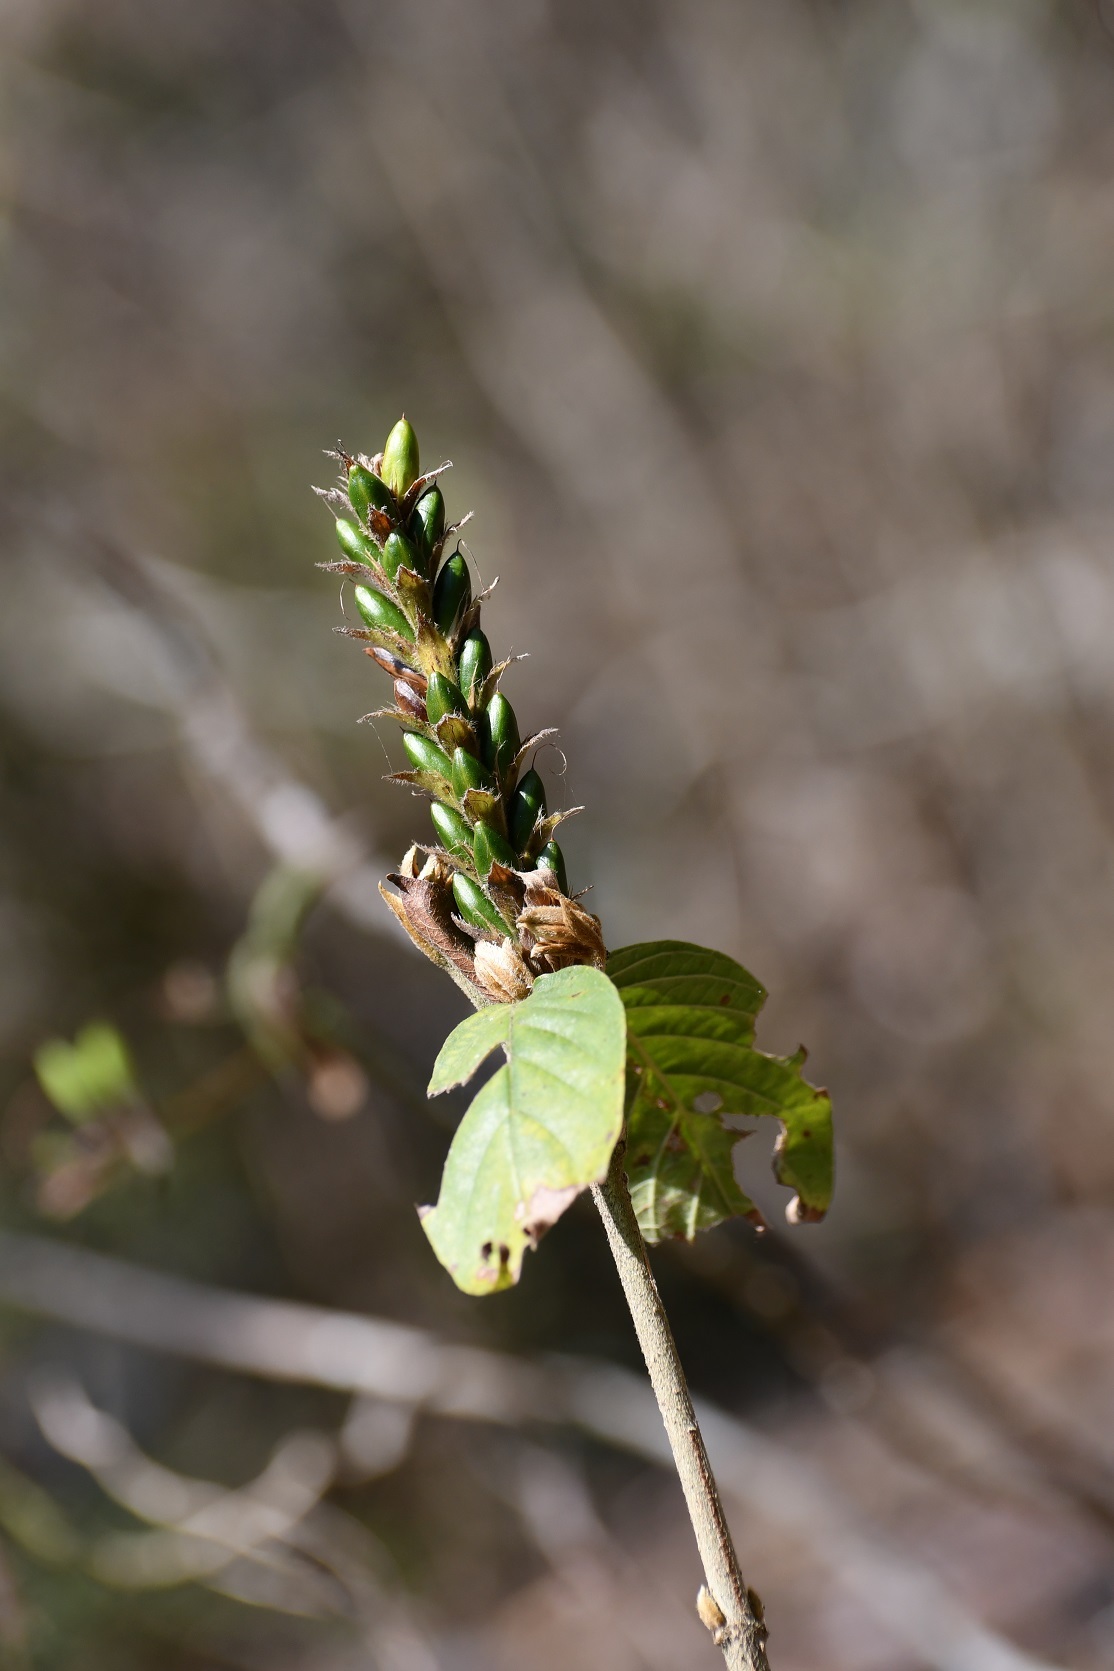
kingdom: Plantae
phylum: Tracheophyta
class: Magnoliopsida
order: Lamiales
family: Acanthaceae
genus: Aphelandra
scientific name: Aphelandra scabra
